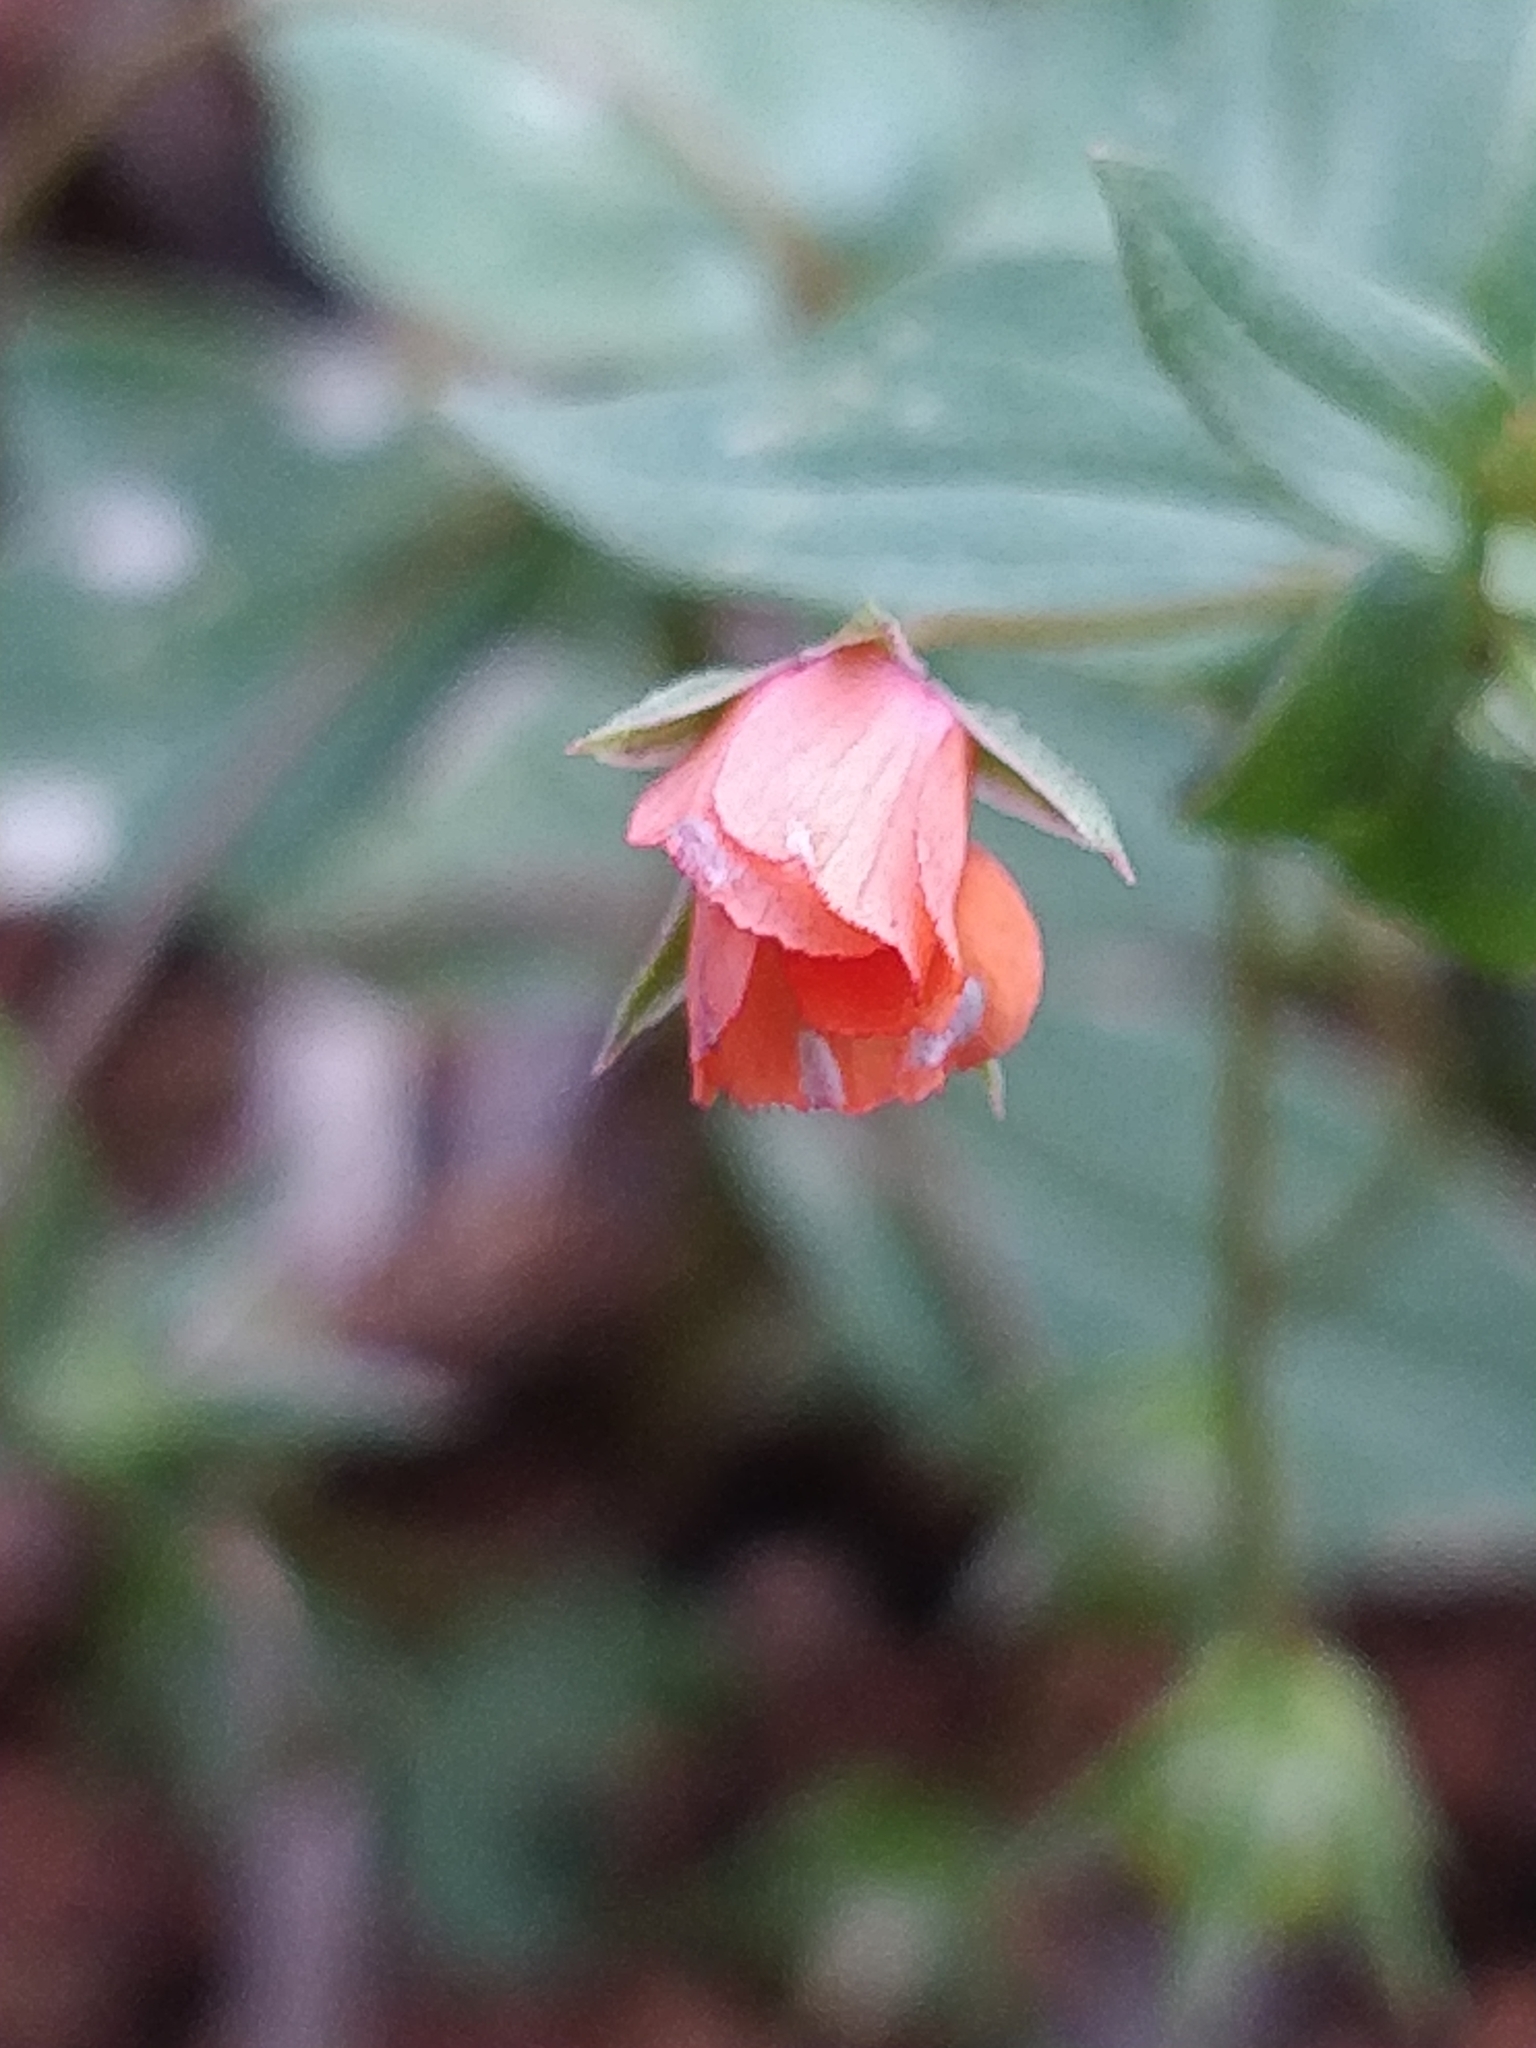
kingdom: Plantae
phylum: Tracheophyta
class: Magnoliopsida
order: Ericales
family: Primulaceae
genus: Lysimachia
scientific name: Lysimachia arvensis
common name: Scarlet pimpernel
